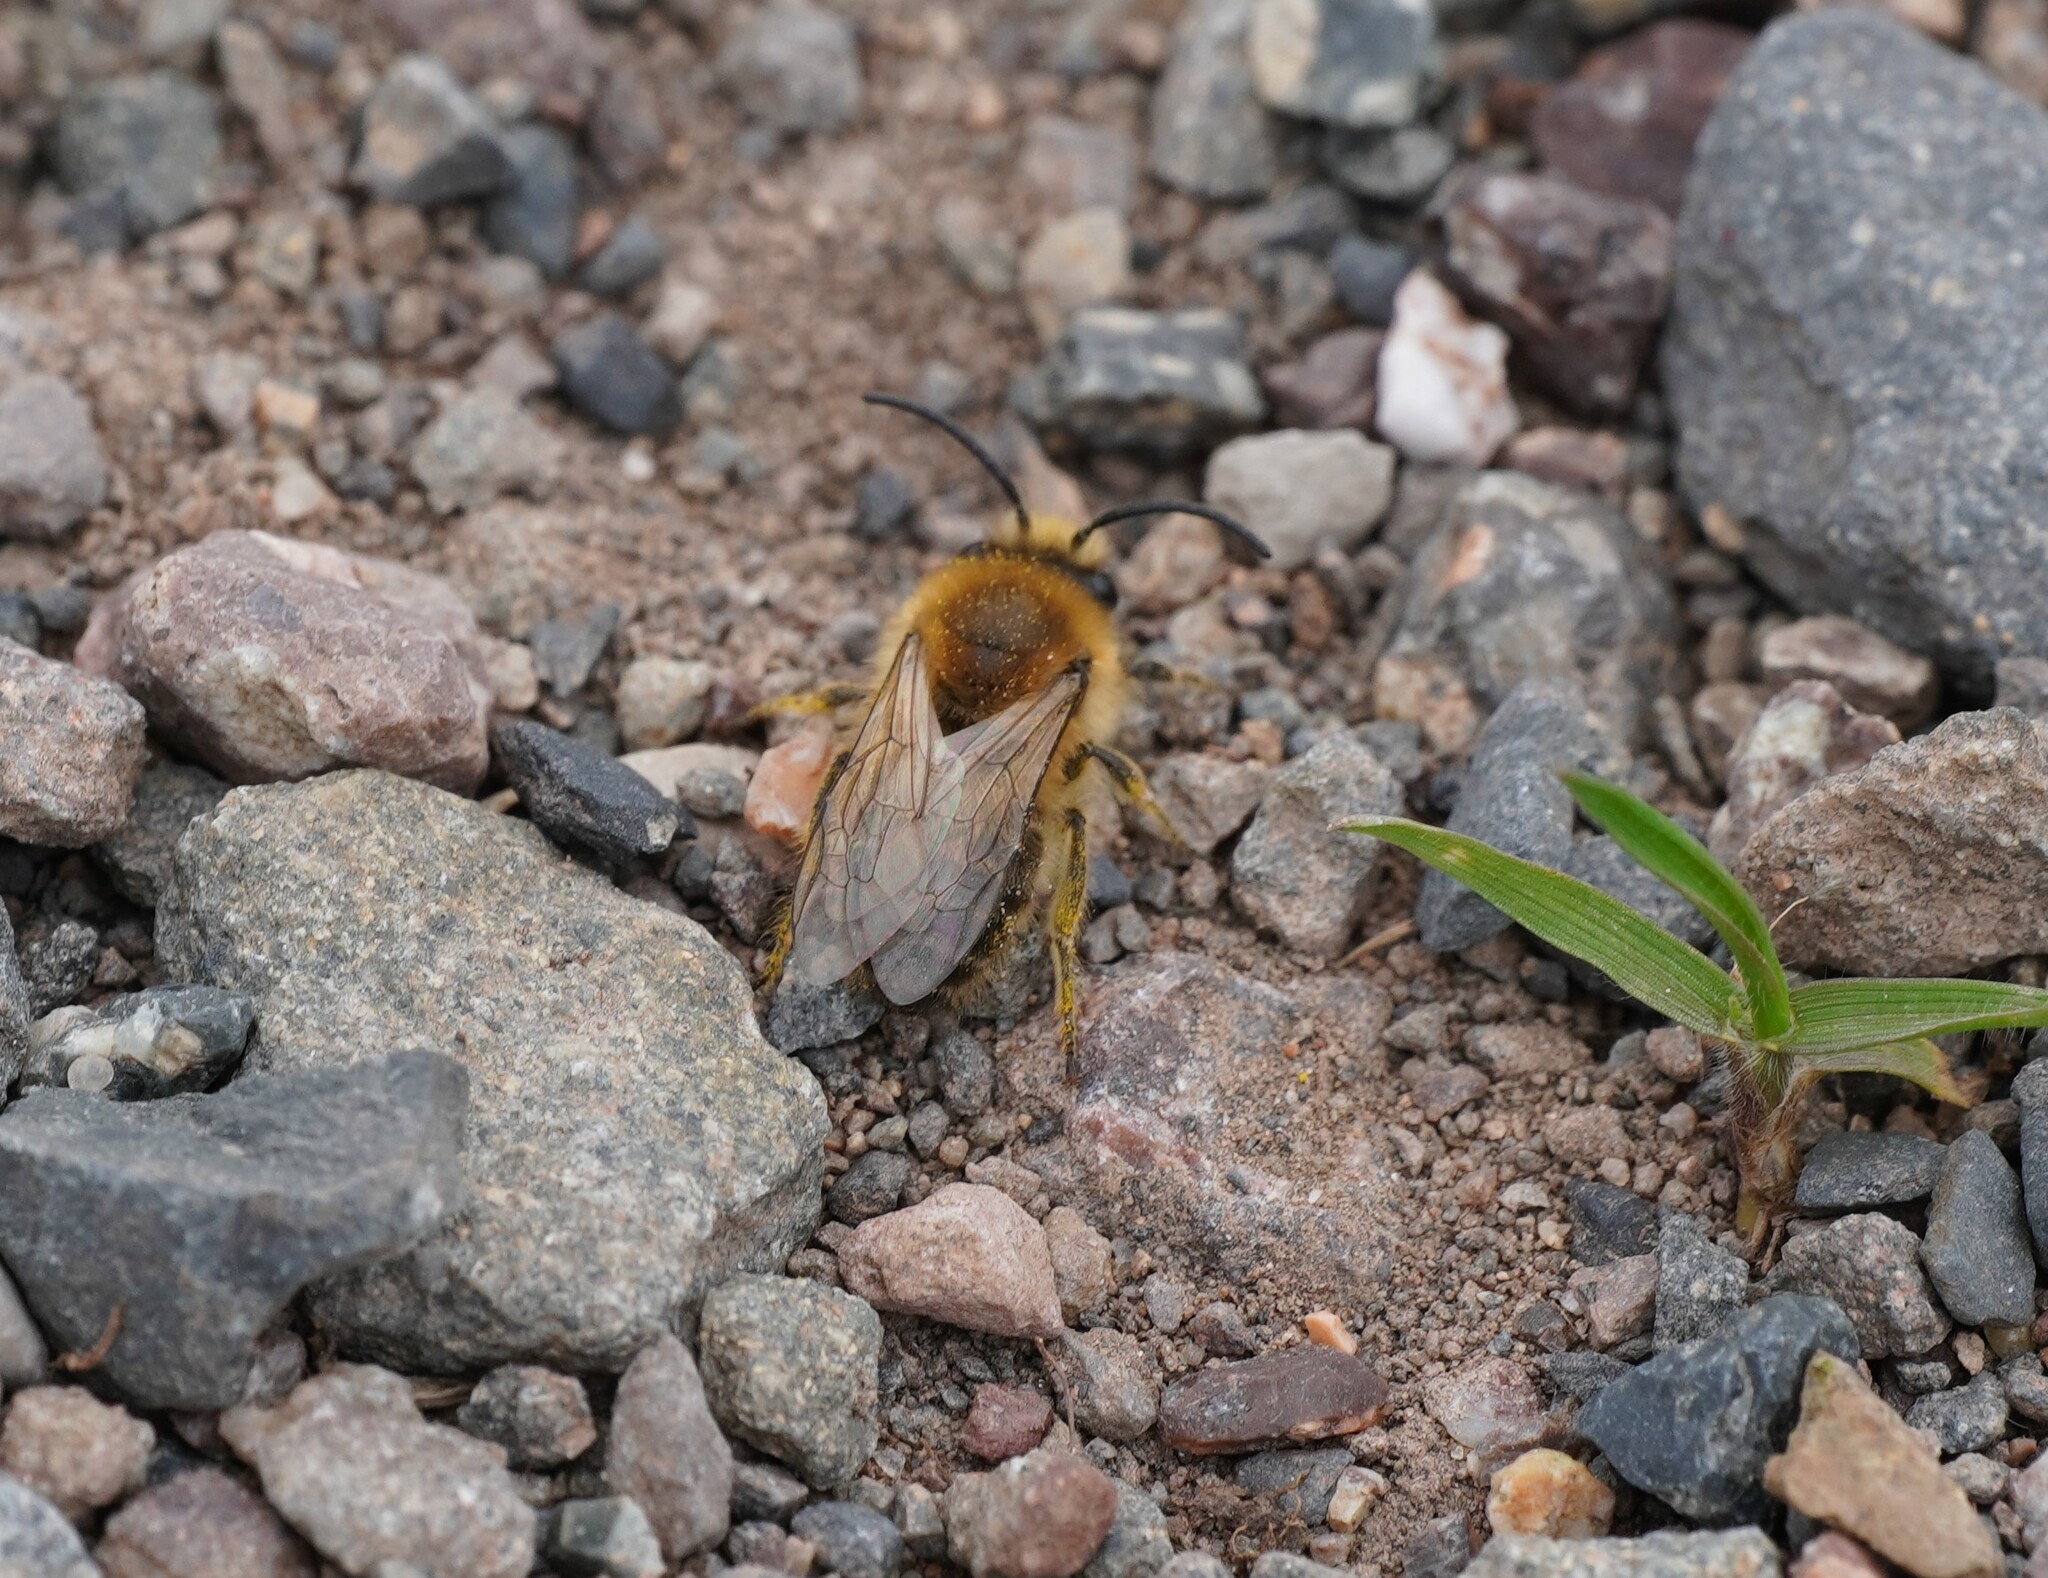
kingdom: Animalia
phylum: Arthropoda
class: Insecta
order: Hymenoptera
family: Colletidae
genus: Colletes
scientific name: Colletes cunicularius
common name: Early colletes
